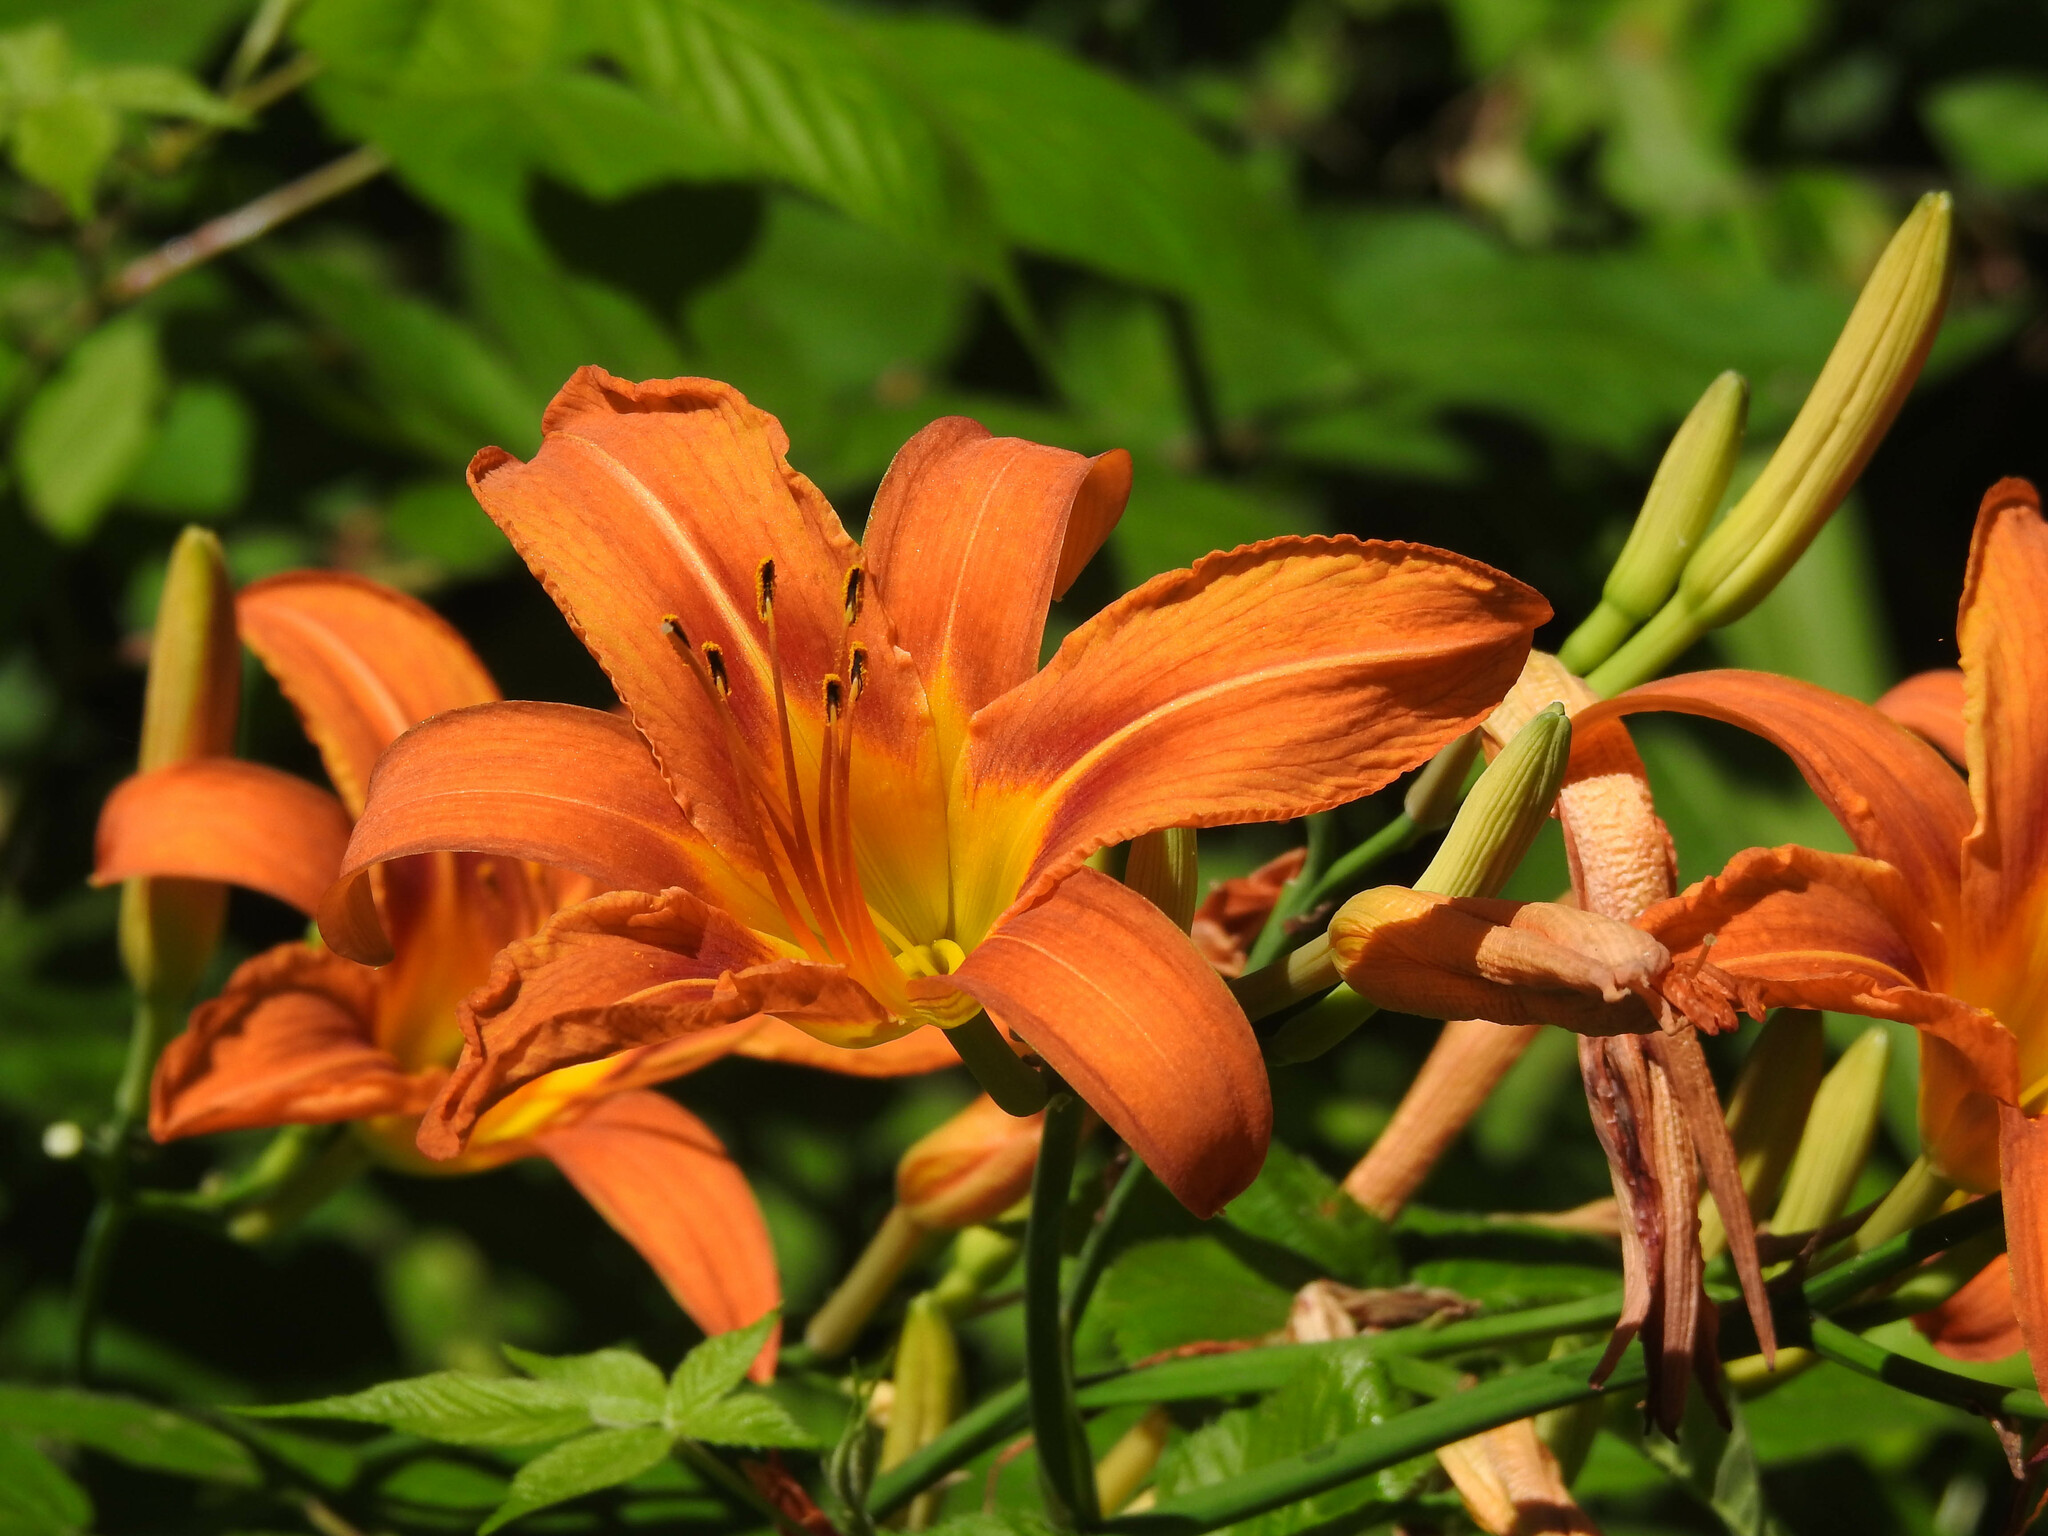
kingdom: Plantae
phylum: Tracheophyta
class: Liliopsida
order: Asparagales
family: Asphodelaceae
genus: Hemerocallis
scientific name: Hemerocallis fulva
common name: Orange day-lily
